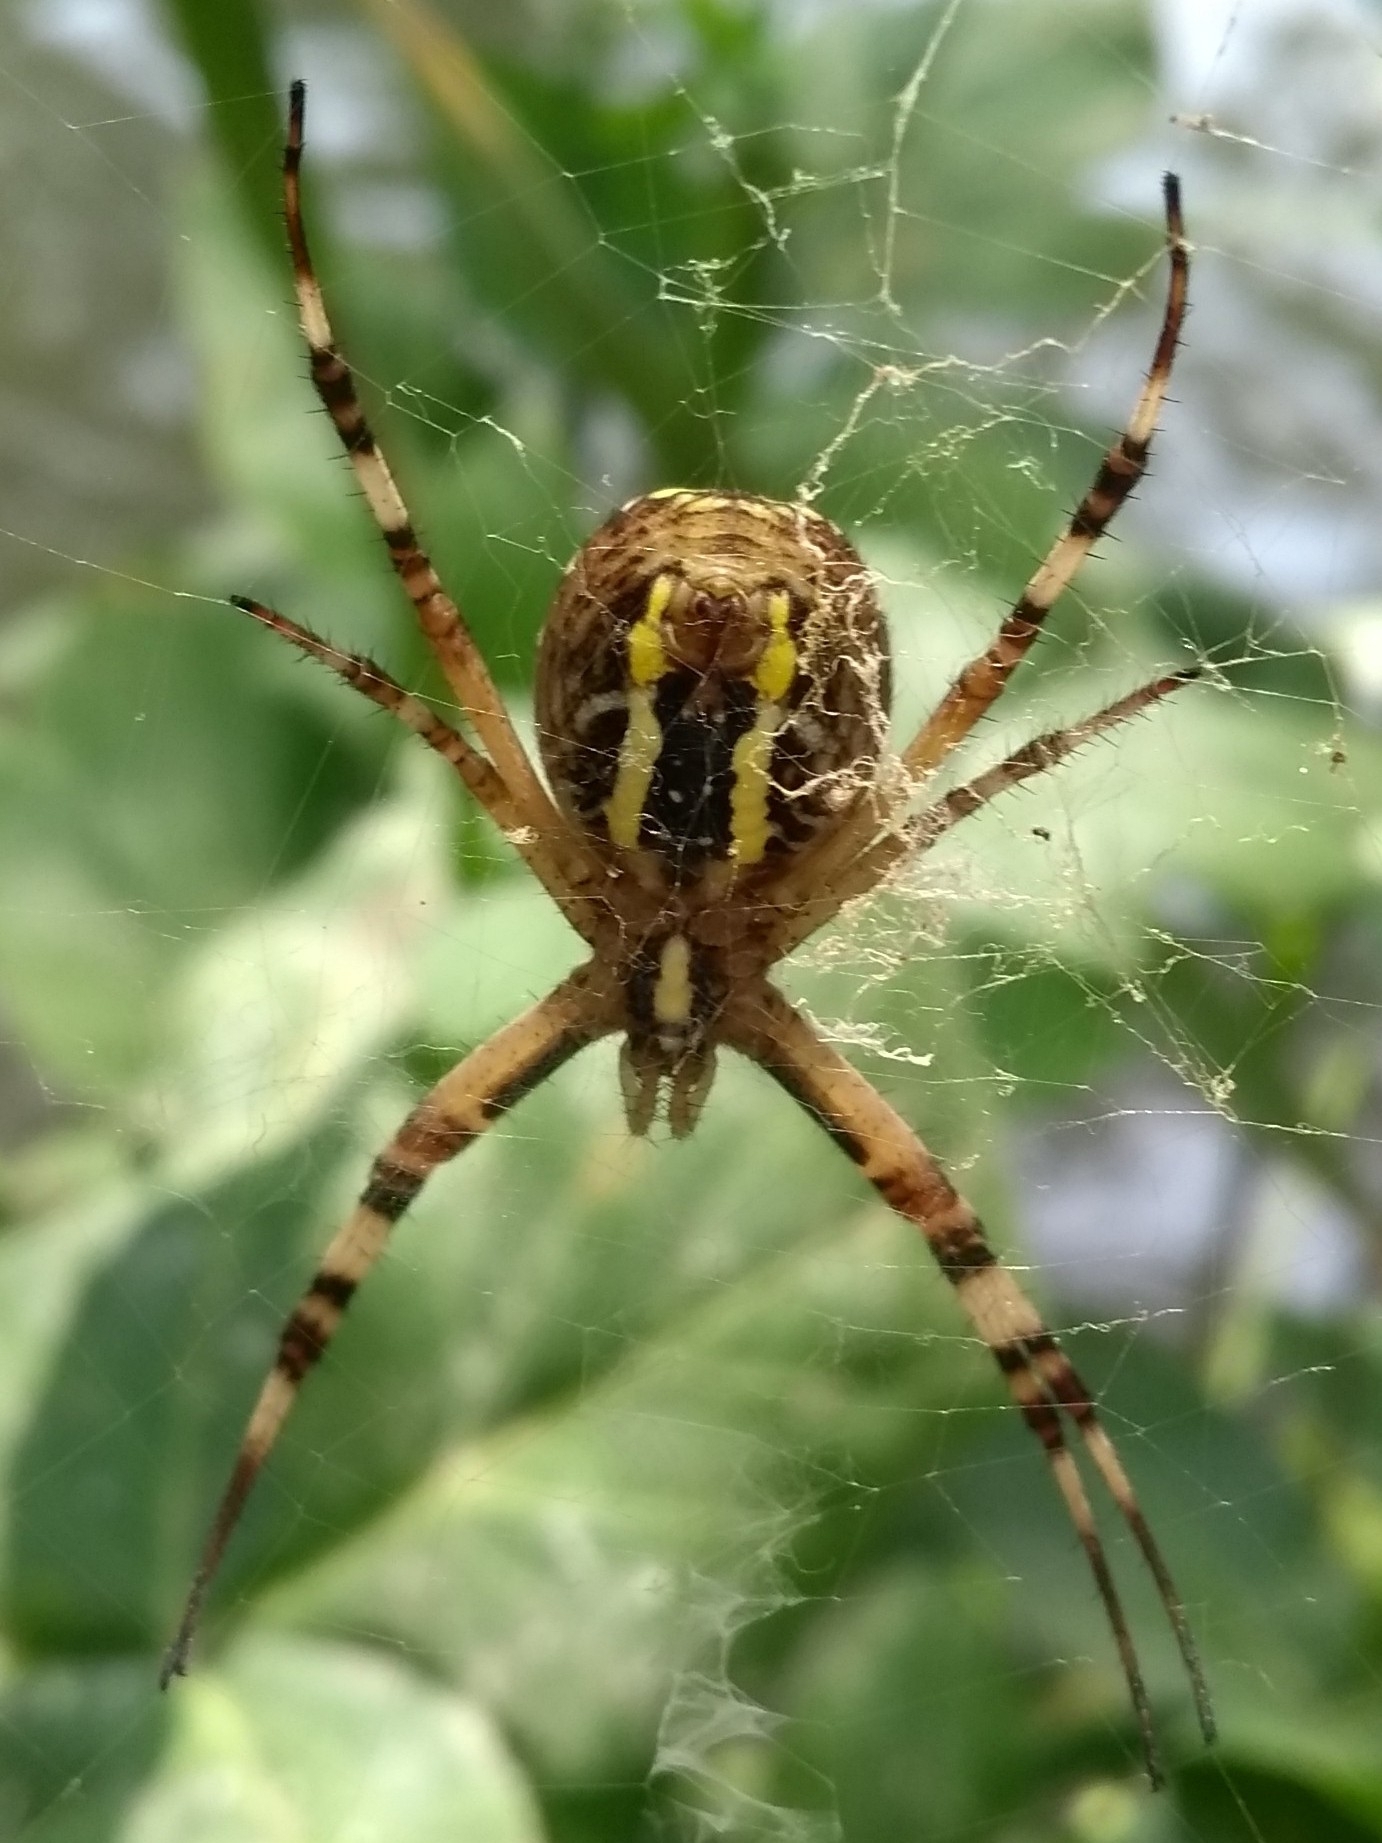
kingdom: Animalia
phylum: Arthropoda
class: Arachnida
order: Araneae
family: Araneidae
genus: Argiope
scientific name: Argiope bruennichi
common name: Wasp spider
